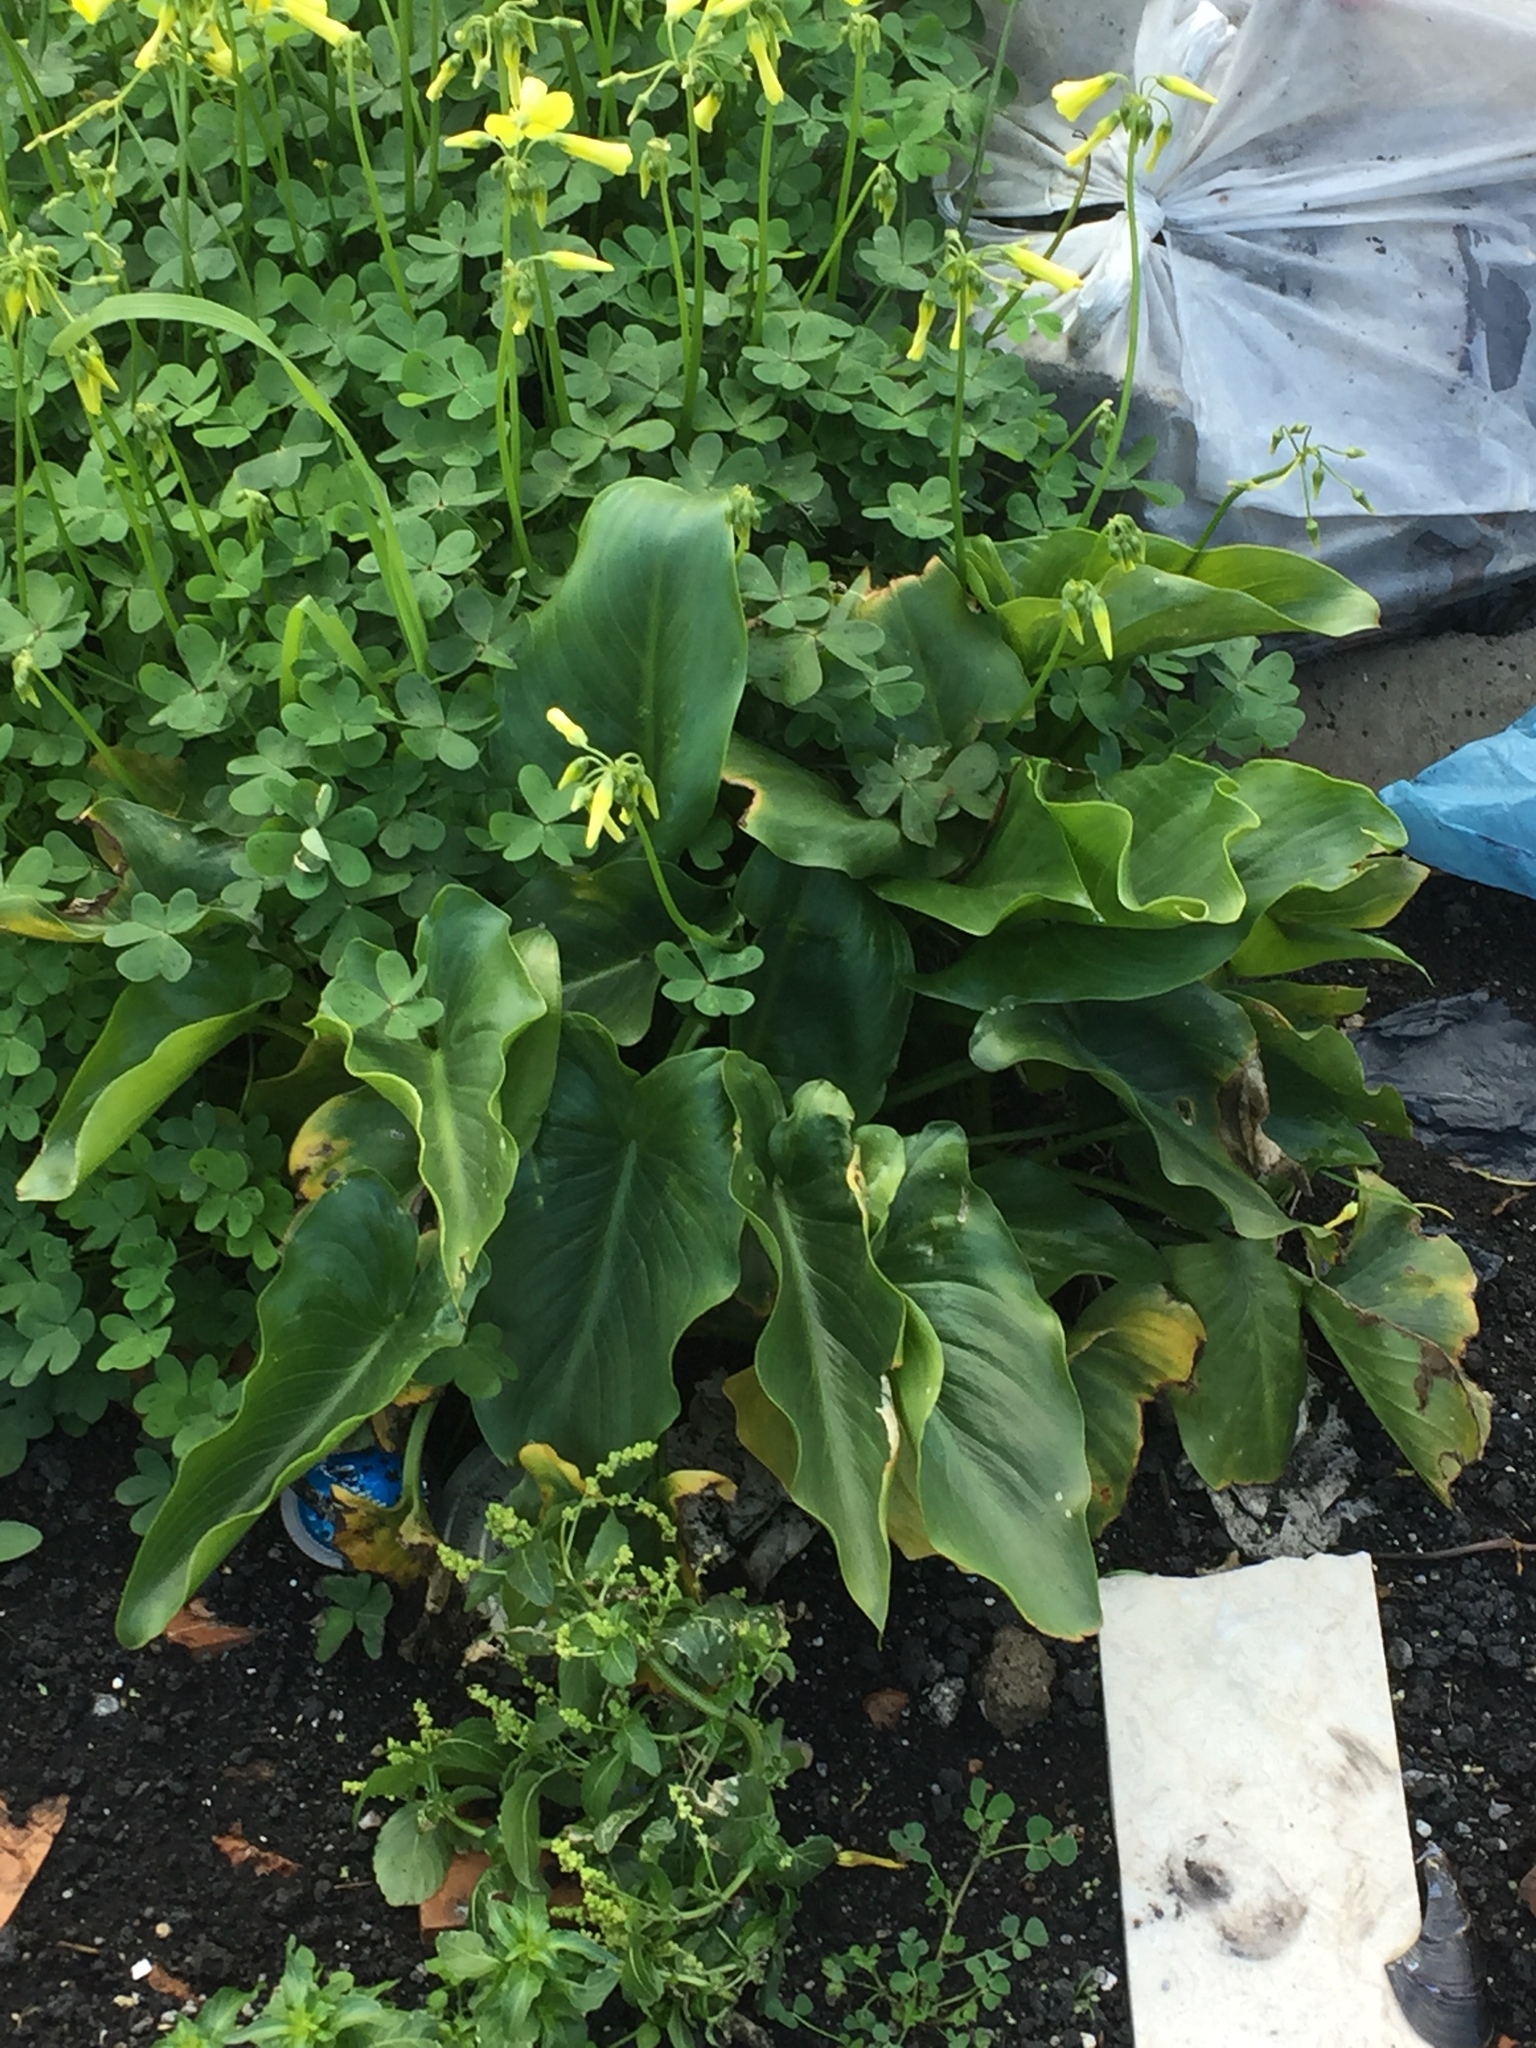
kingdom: Plantae
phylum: Tracheophyta
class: Liliopsida
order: Alismatales
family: Araceae
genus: Zantedeschia
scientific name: Zantedeschia aethiopica
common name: Altar-lily
